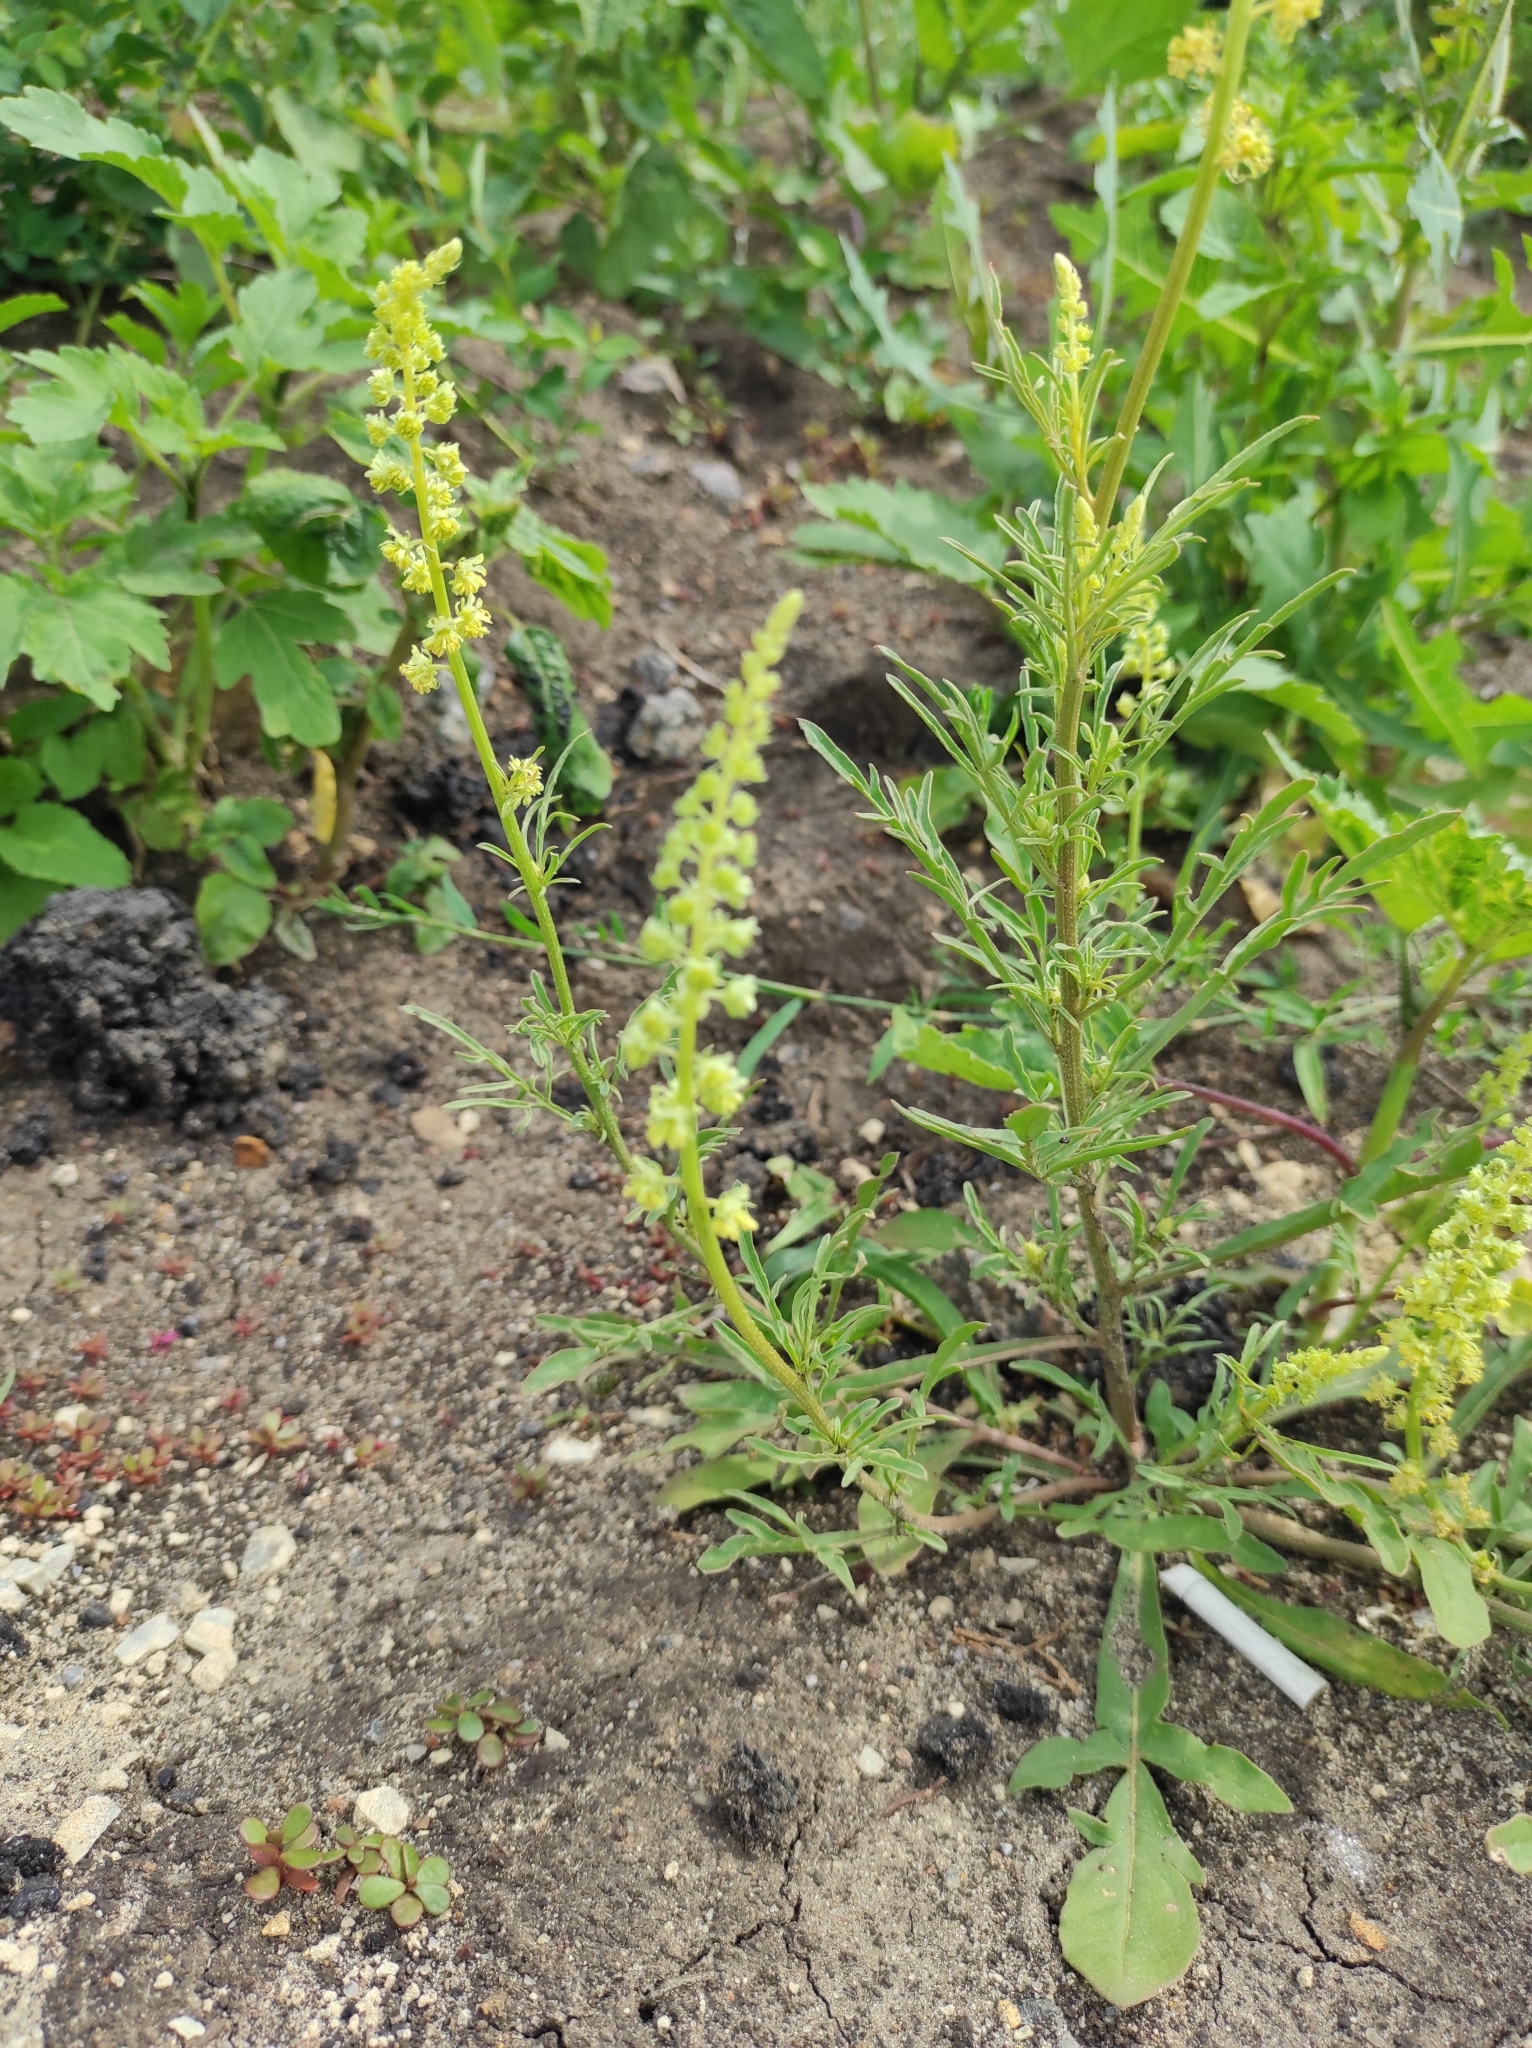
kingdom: Plantae
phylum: Tracheophyta
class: Magnoliopsida
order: Brassicales
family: Resedaceae
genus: Reseda
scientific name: Reseda lutea
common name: Wild mignonette
